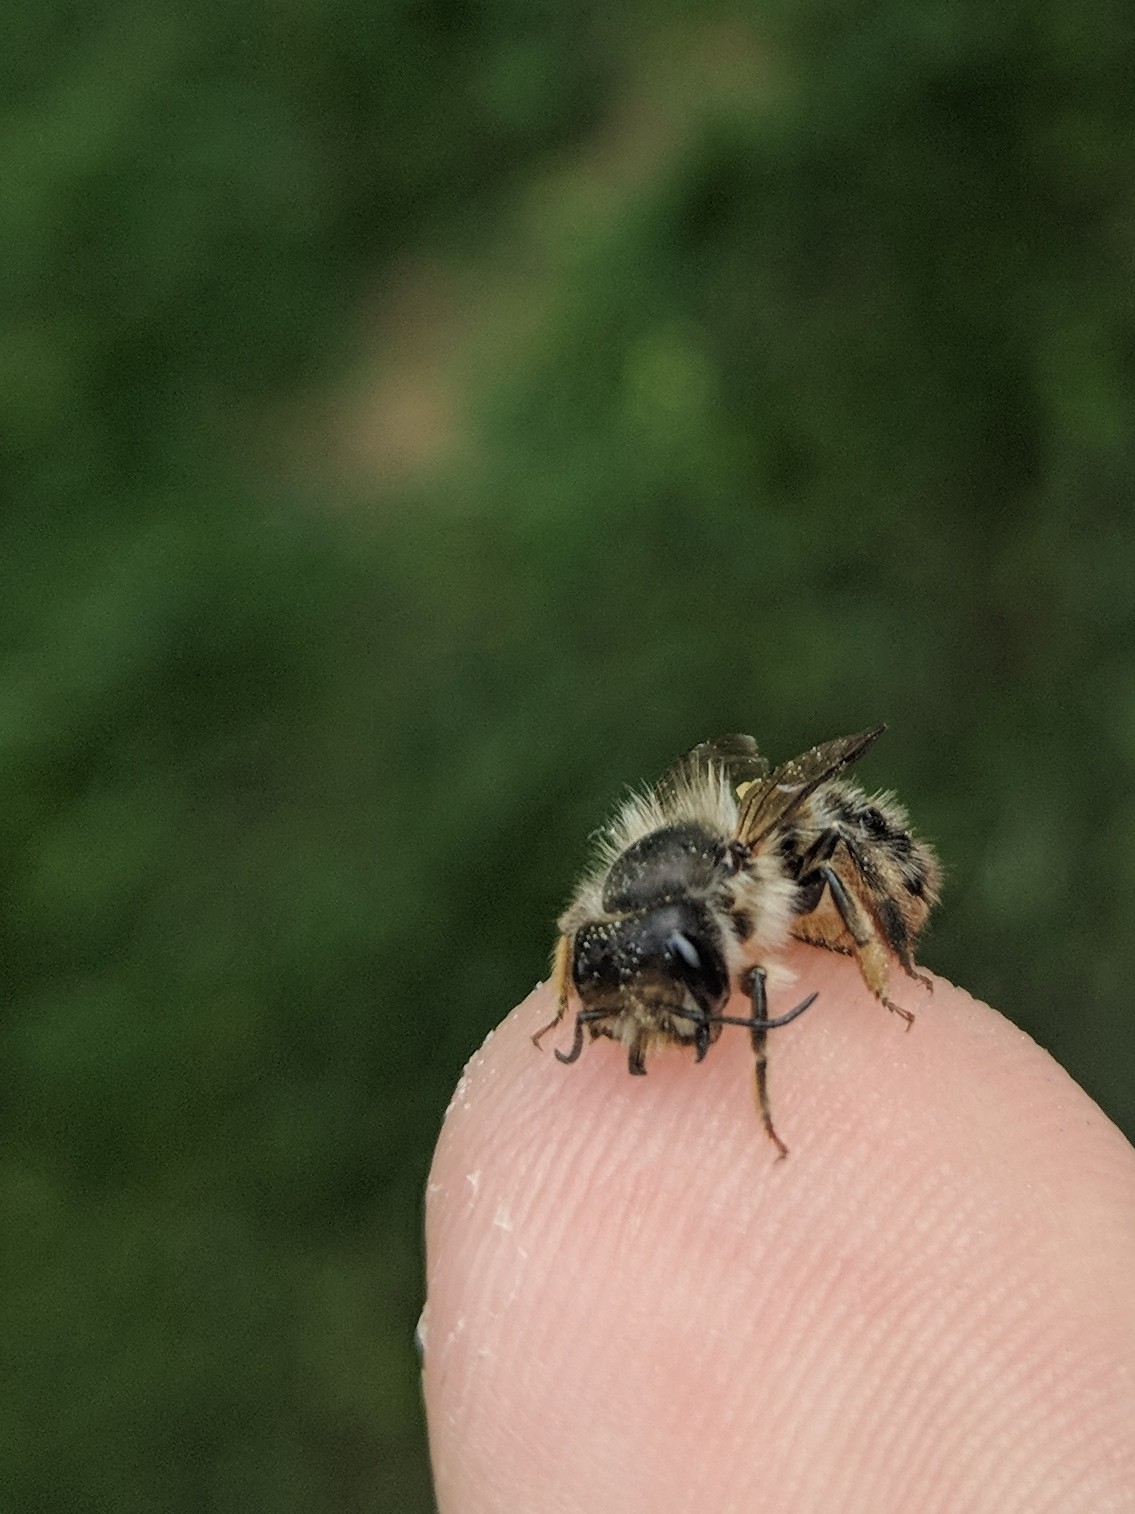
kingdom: Animalia
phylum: Arthropoda
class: Insecta
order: Hymenoptera
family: Megachilidae
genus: Osmia
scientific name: Osmia cornifrons
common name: Horn-faced bee
